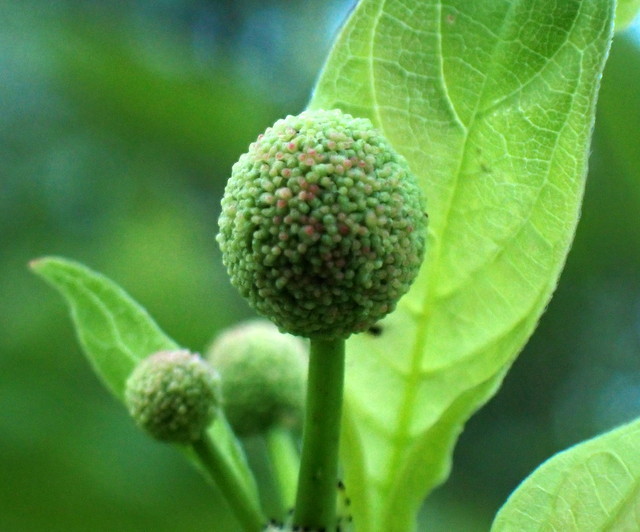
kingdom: Plantae
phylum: Tracheophyta
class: Magnoliopsida
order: Gentianales
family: Rubiaceae
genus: Cephalanthus
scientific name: Cephalanthus occidentalis
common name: Button-willow
